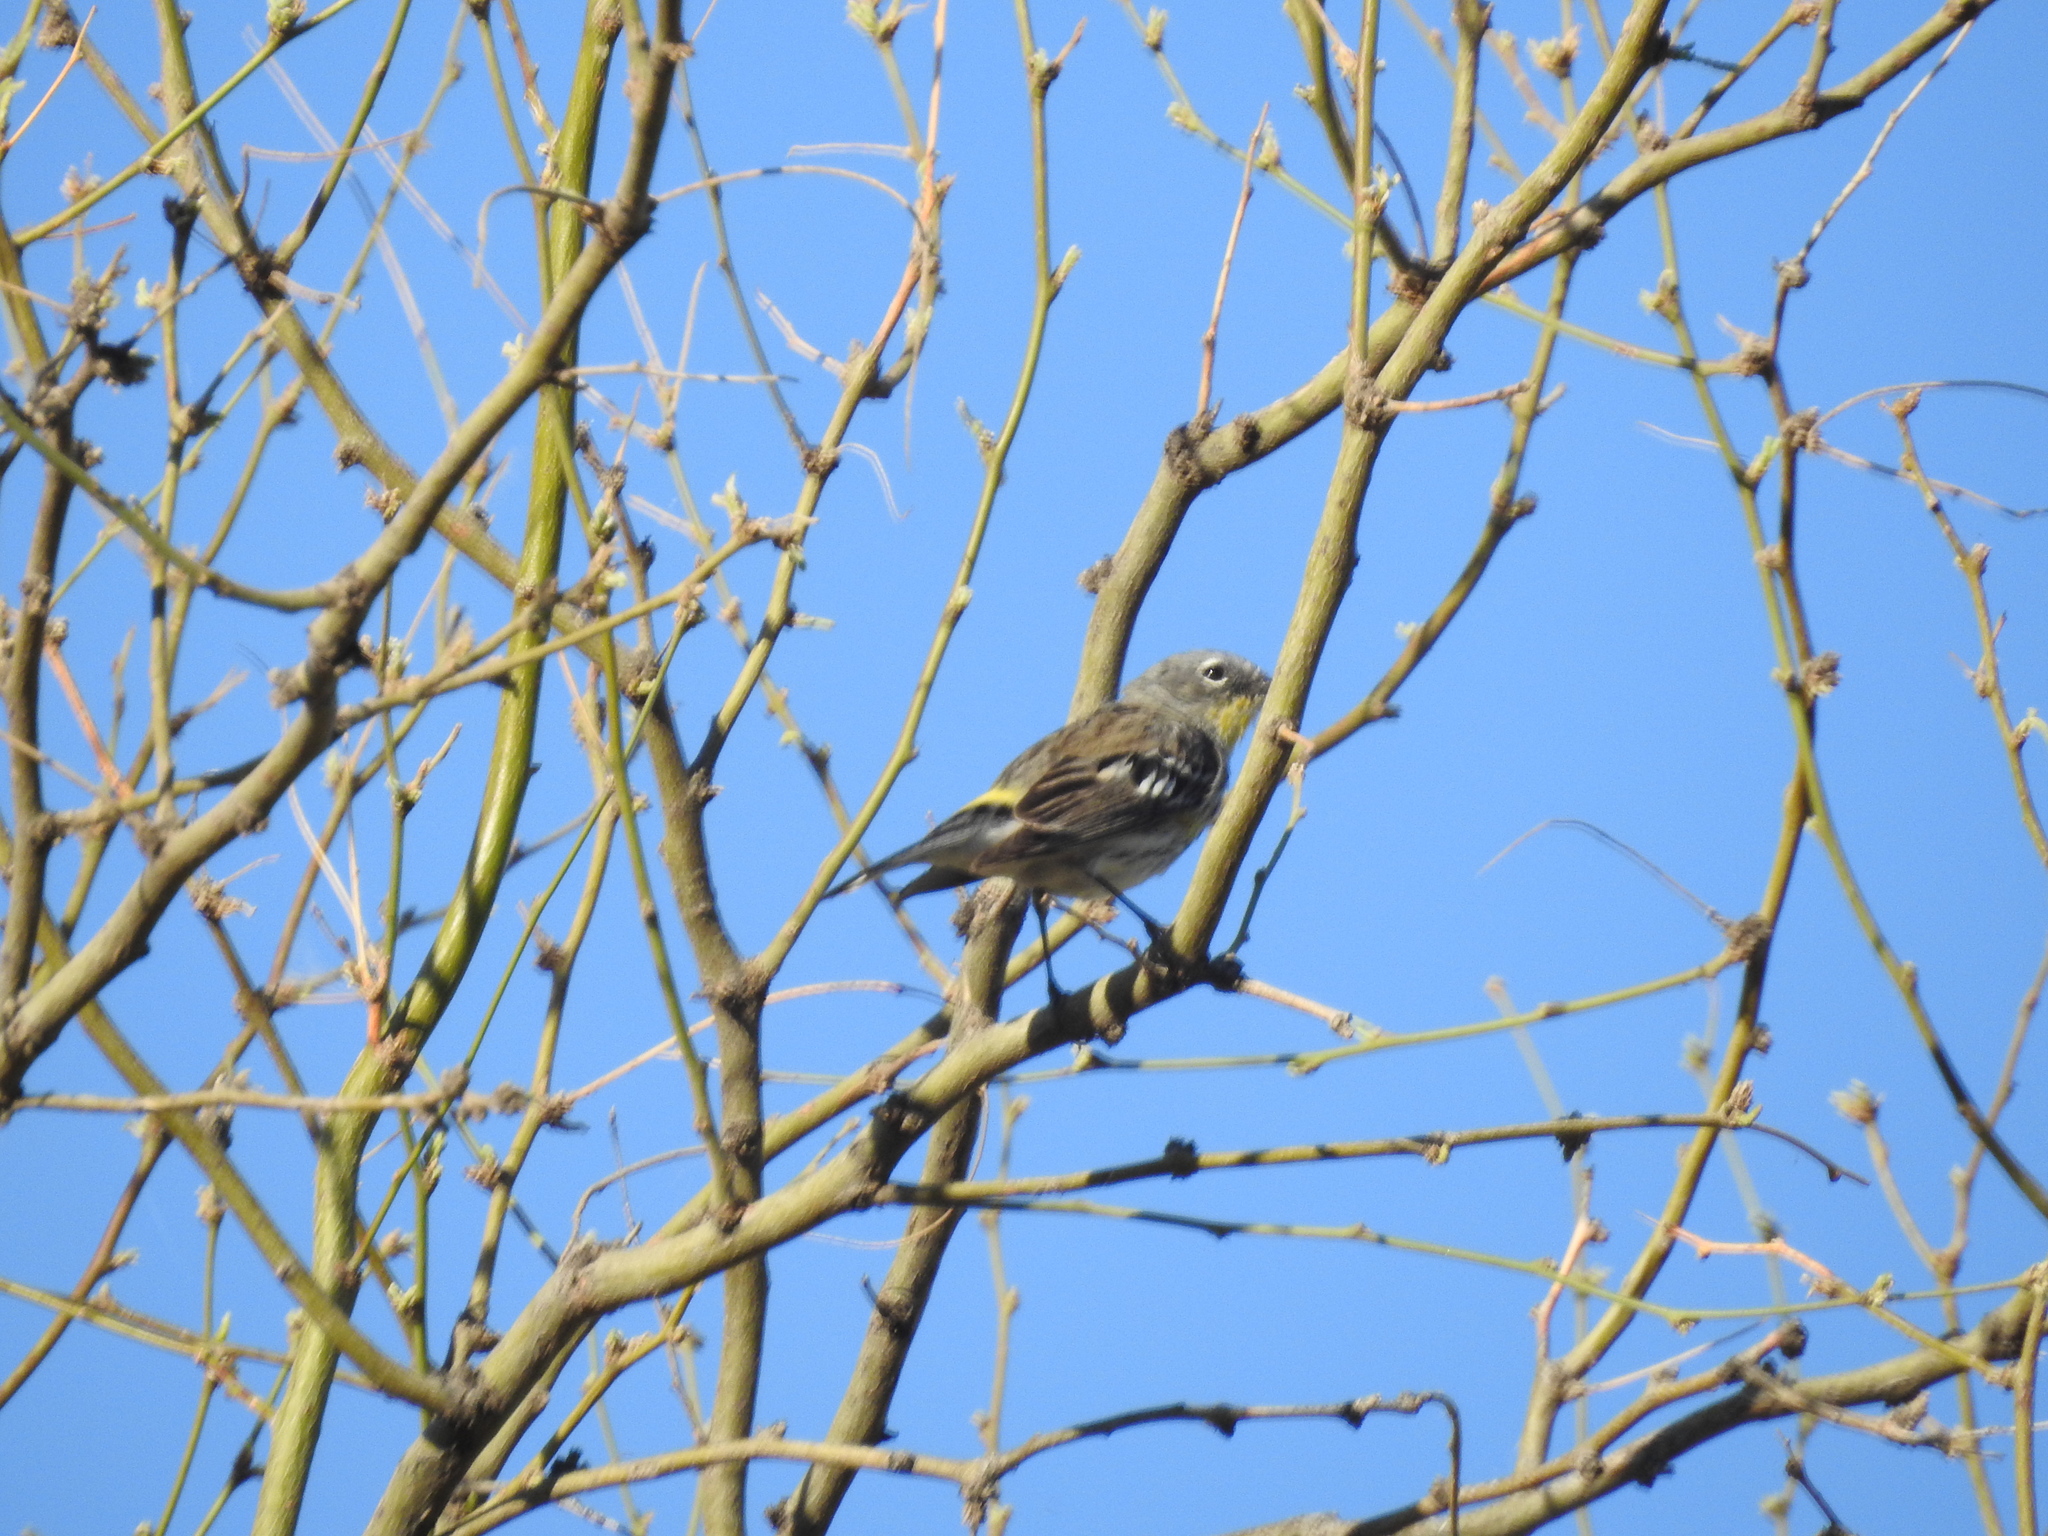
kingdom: Animalia
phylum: Chordata
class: Aves
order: Passeriformes
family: Parulidae
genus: Setophaga
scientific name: Setophaga coronata
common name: Myrtle warbler
